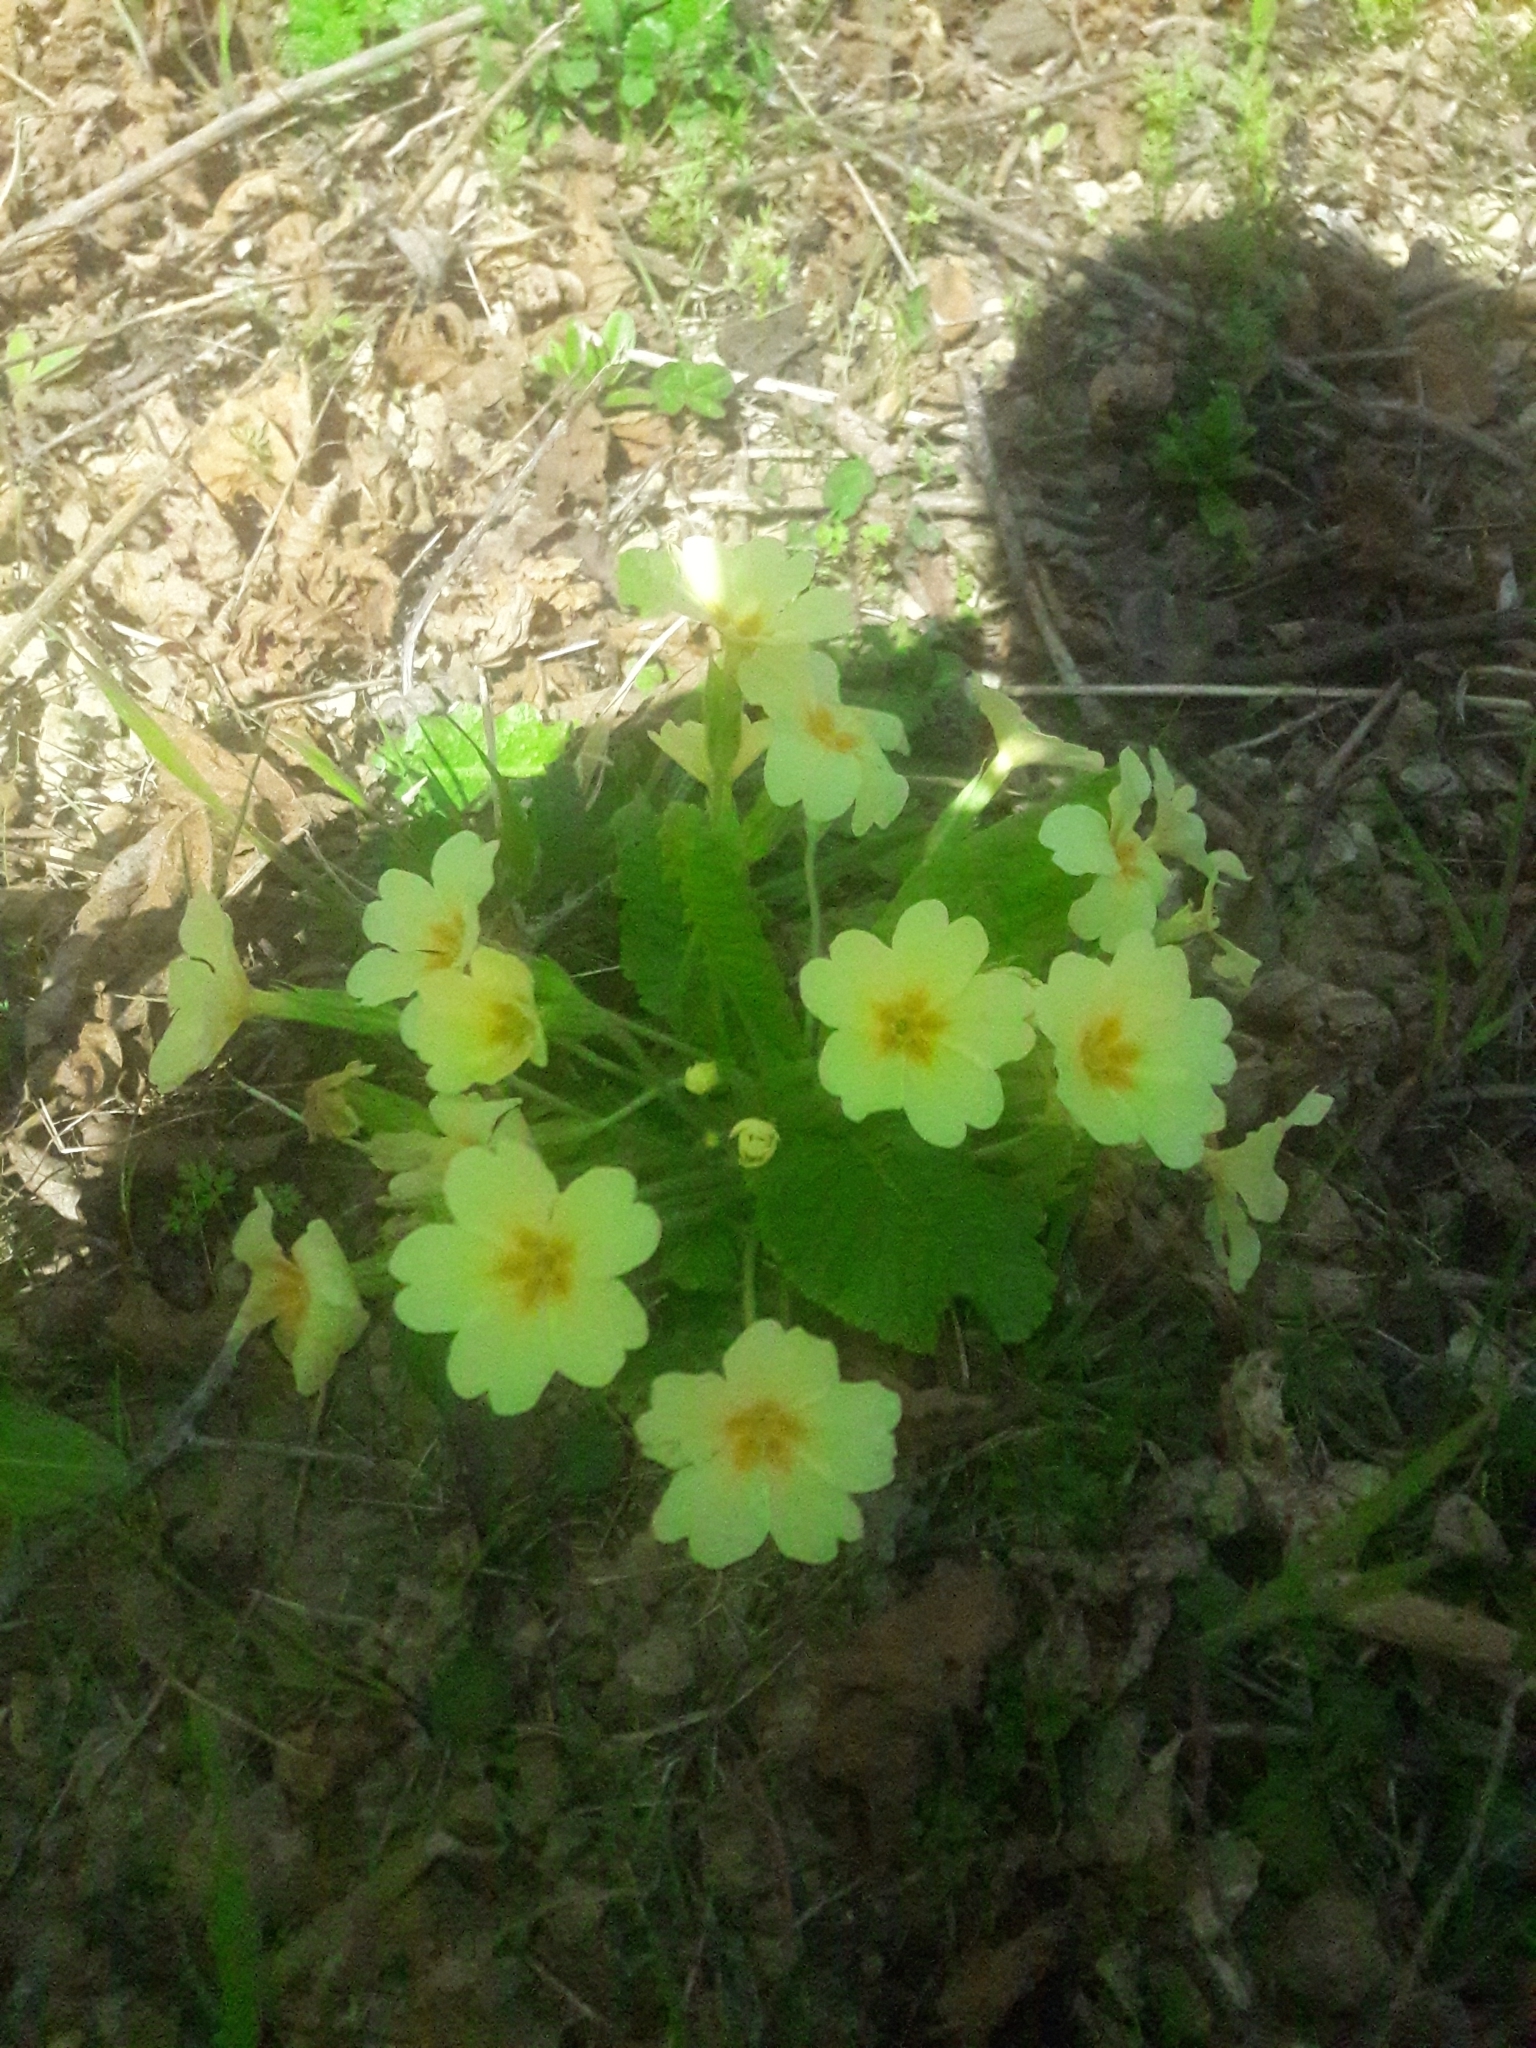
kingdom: Plantae
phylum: Tracheophyta
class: Magnoliopsida
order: Ericales
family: Primulaceae
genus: Primula
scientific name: Primula vulgaris
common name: Primrose
